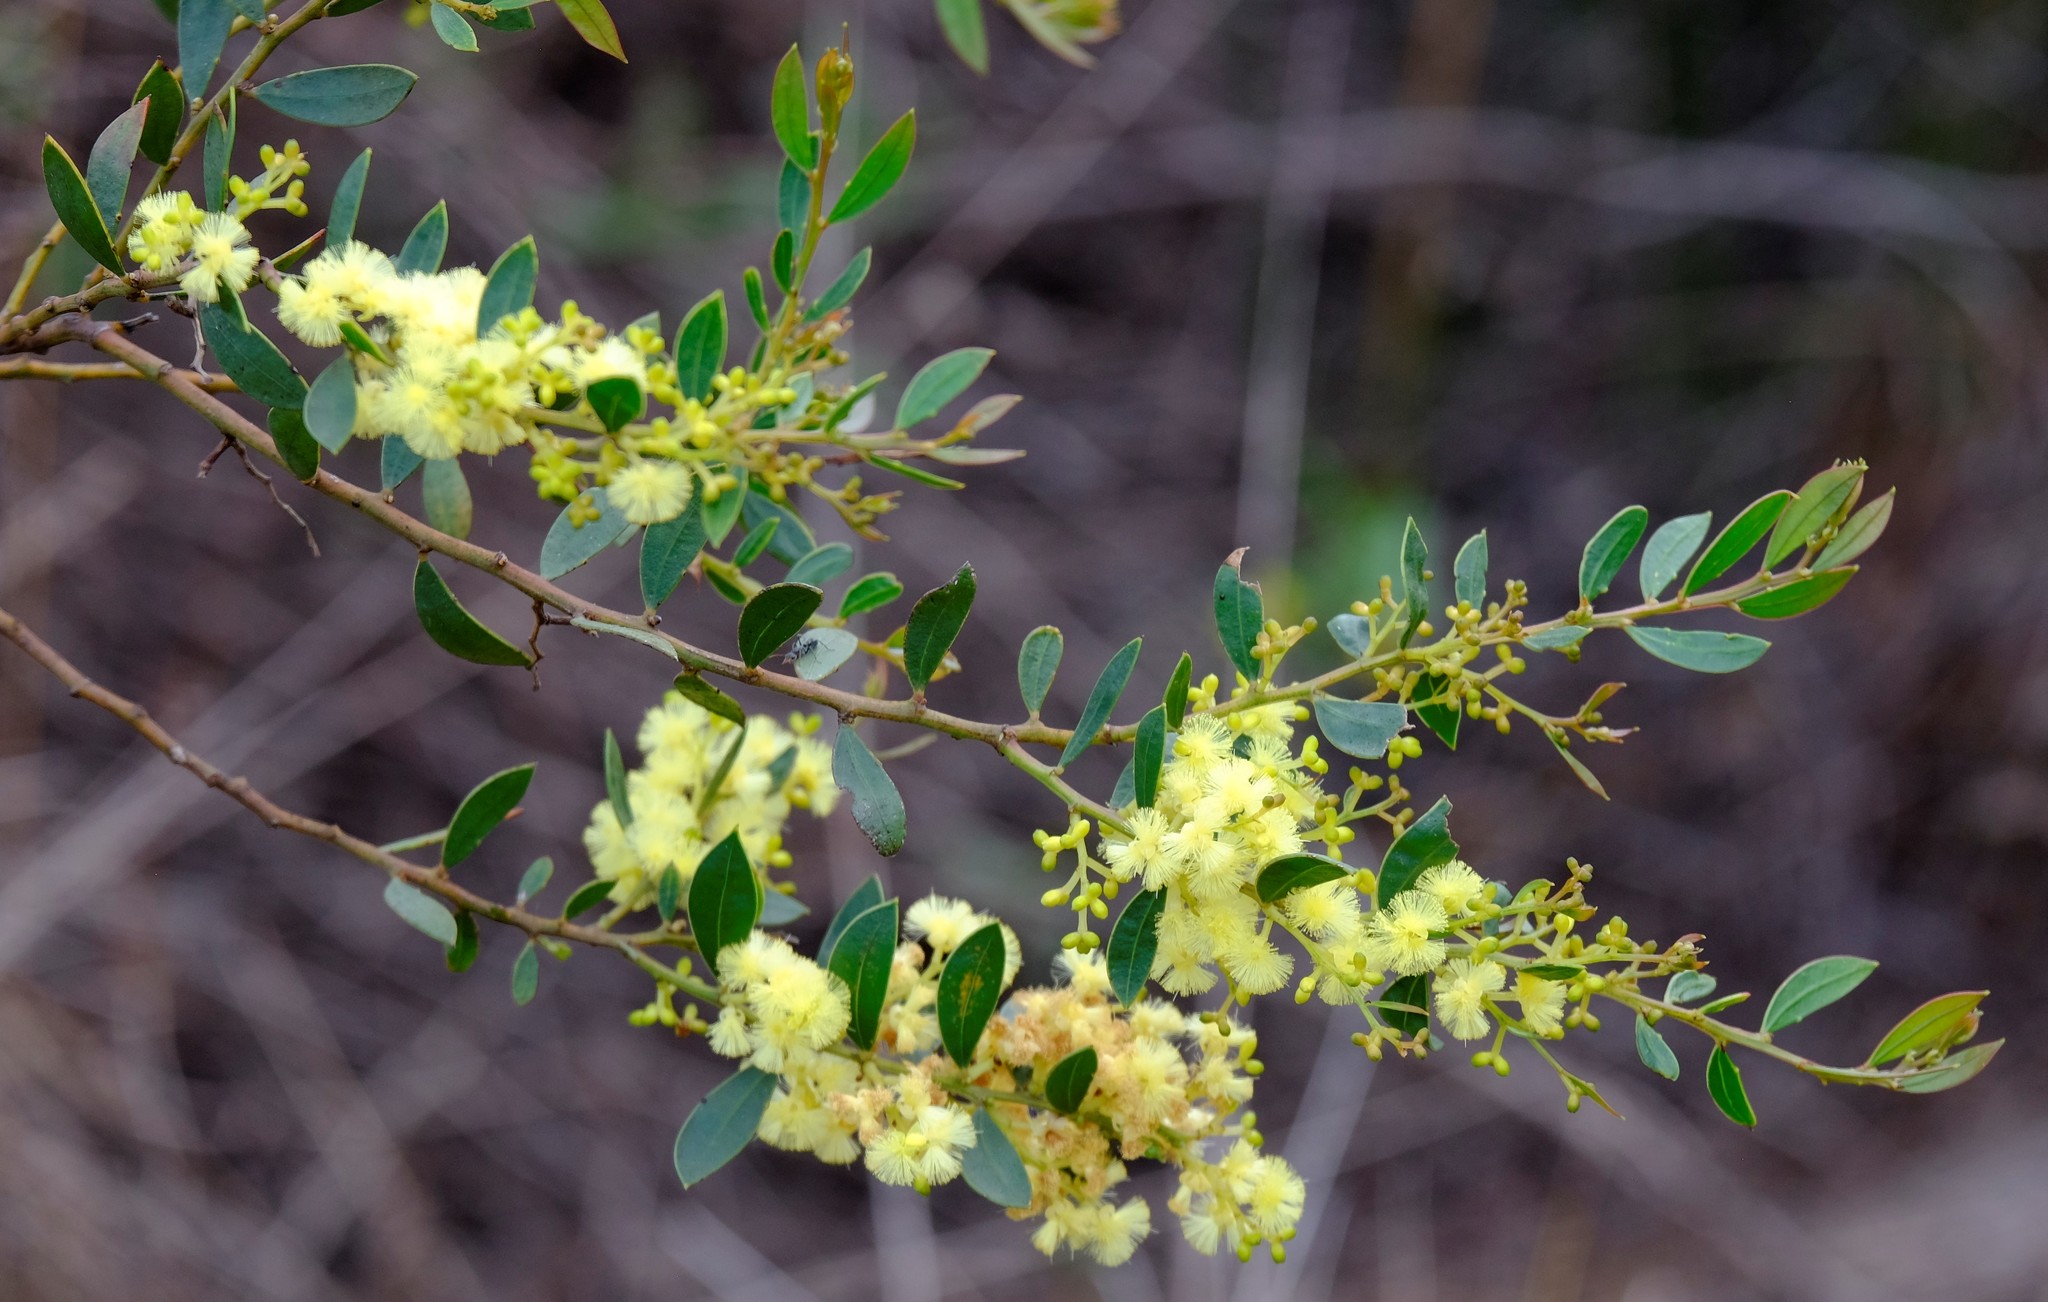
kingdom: Plantae
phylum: Tracheophyta
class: Magnoliopsida
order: Fabales
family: Fabaceae
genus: Acacia
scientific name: Acacia myrtifolia
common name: Myrtle wattle
